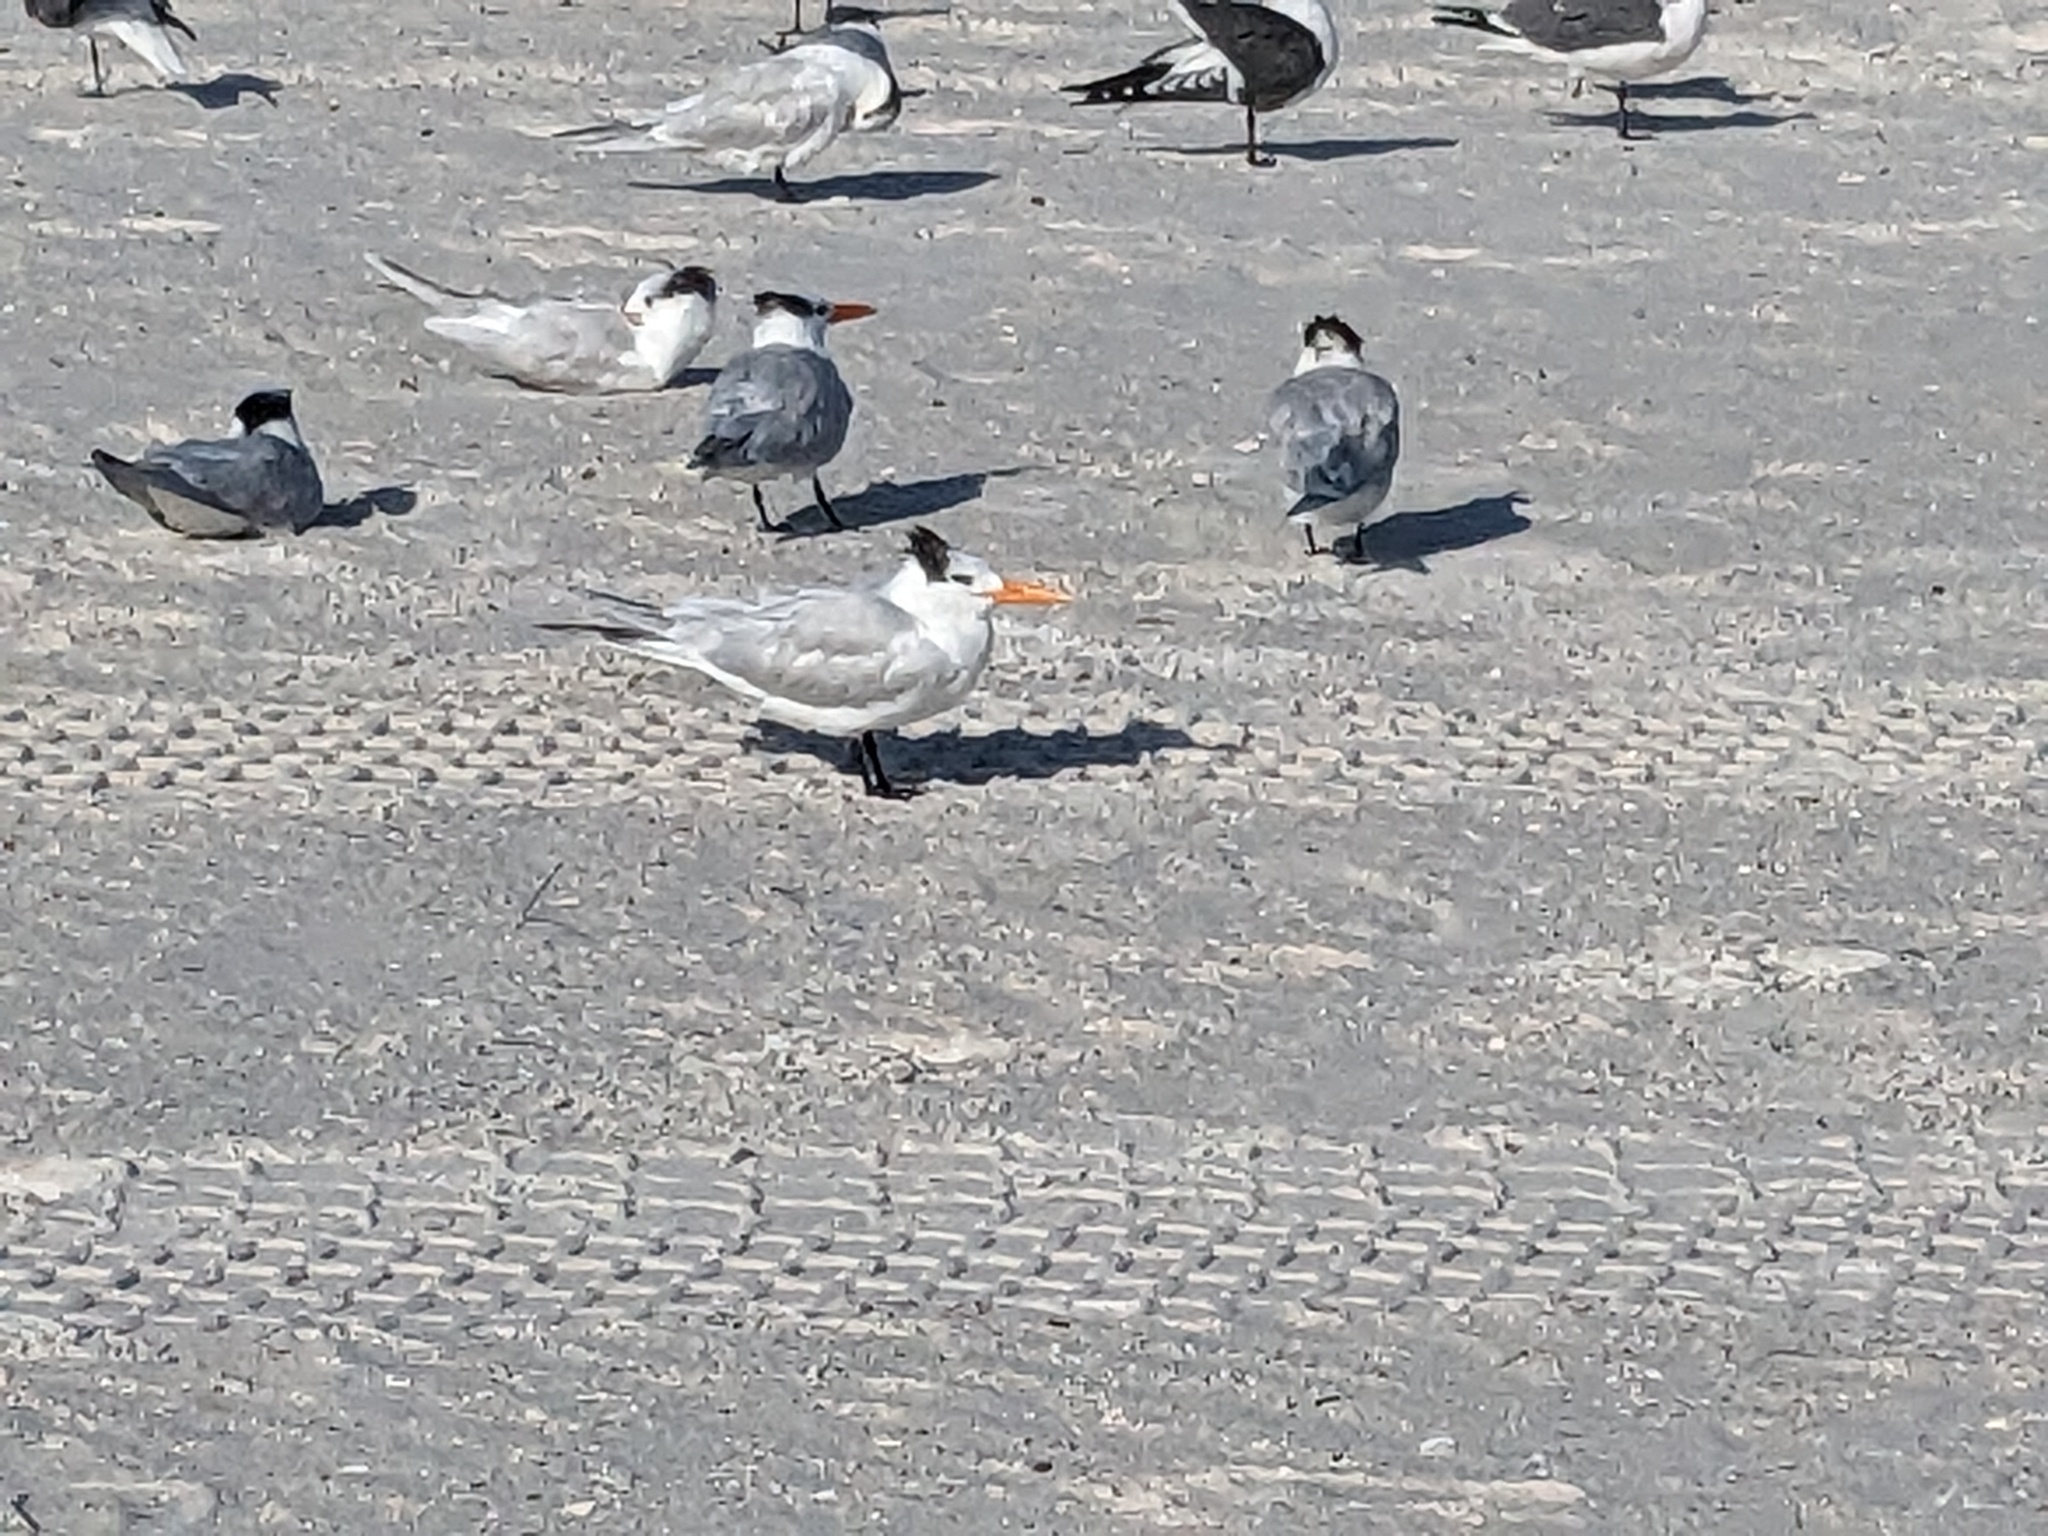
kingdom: Animalia
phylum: Chordata
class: Aves
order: Charadriiformes
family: Laridae
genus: Thalasseus
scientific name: Thalasseus maximus
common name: Royal tern
